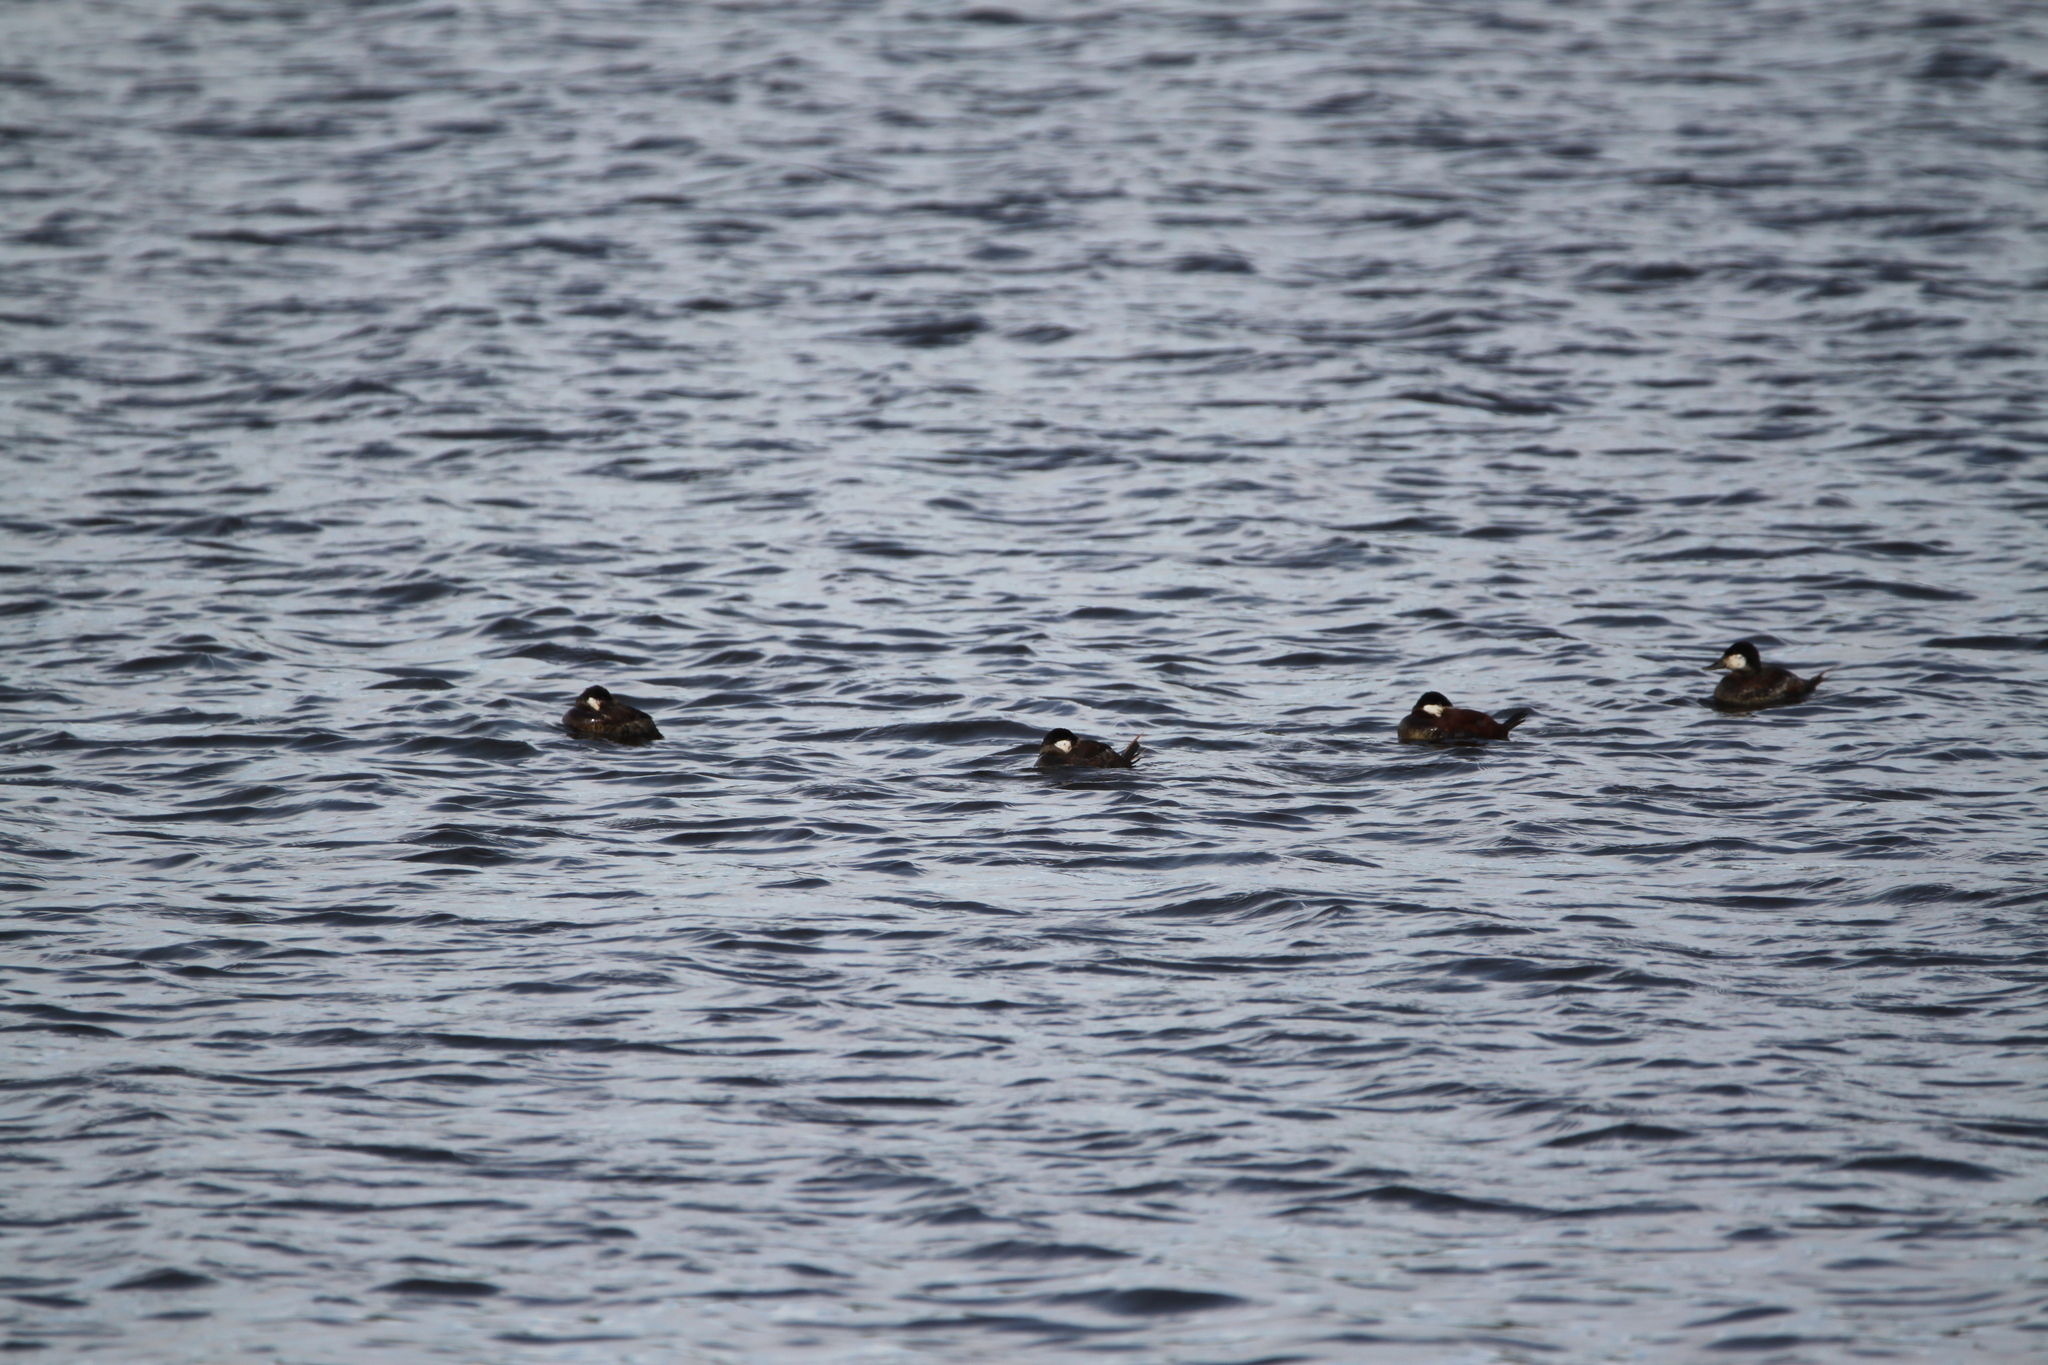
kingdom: Animalia
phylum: Chordata
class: Aves
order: Anseriformes
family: Anatidae
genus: Oxyura
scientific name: Oxyura jamaicensis
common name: Ruddy duck
